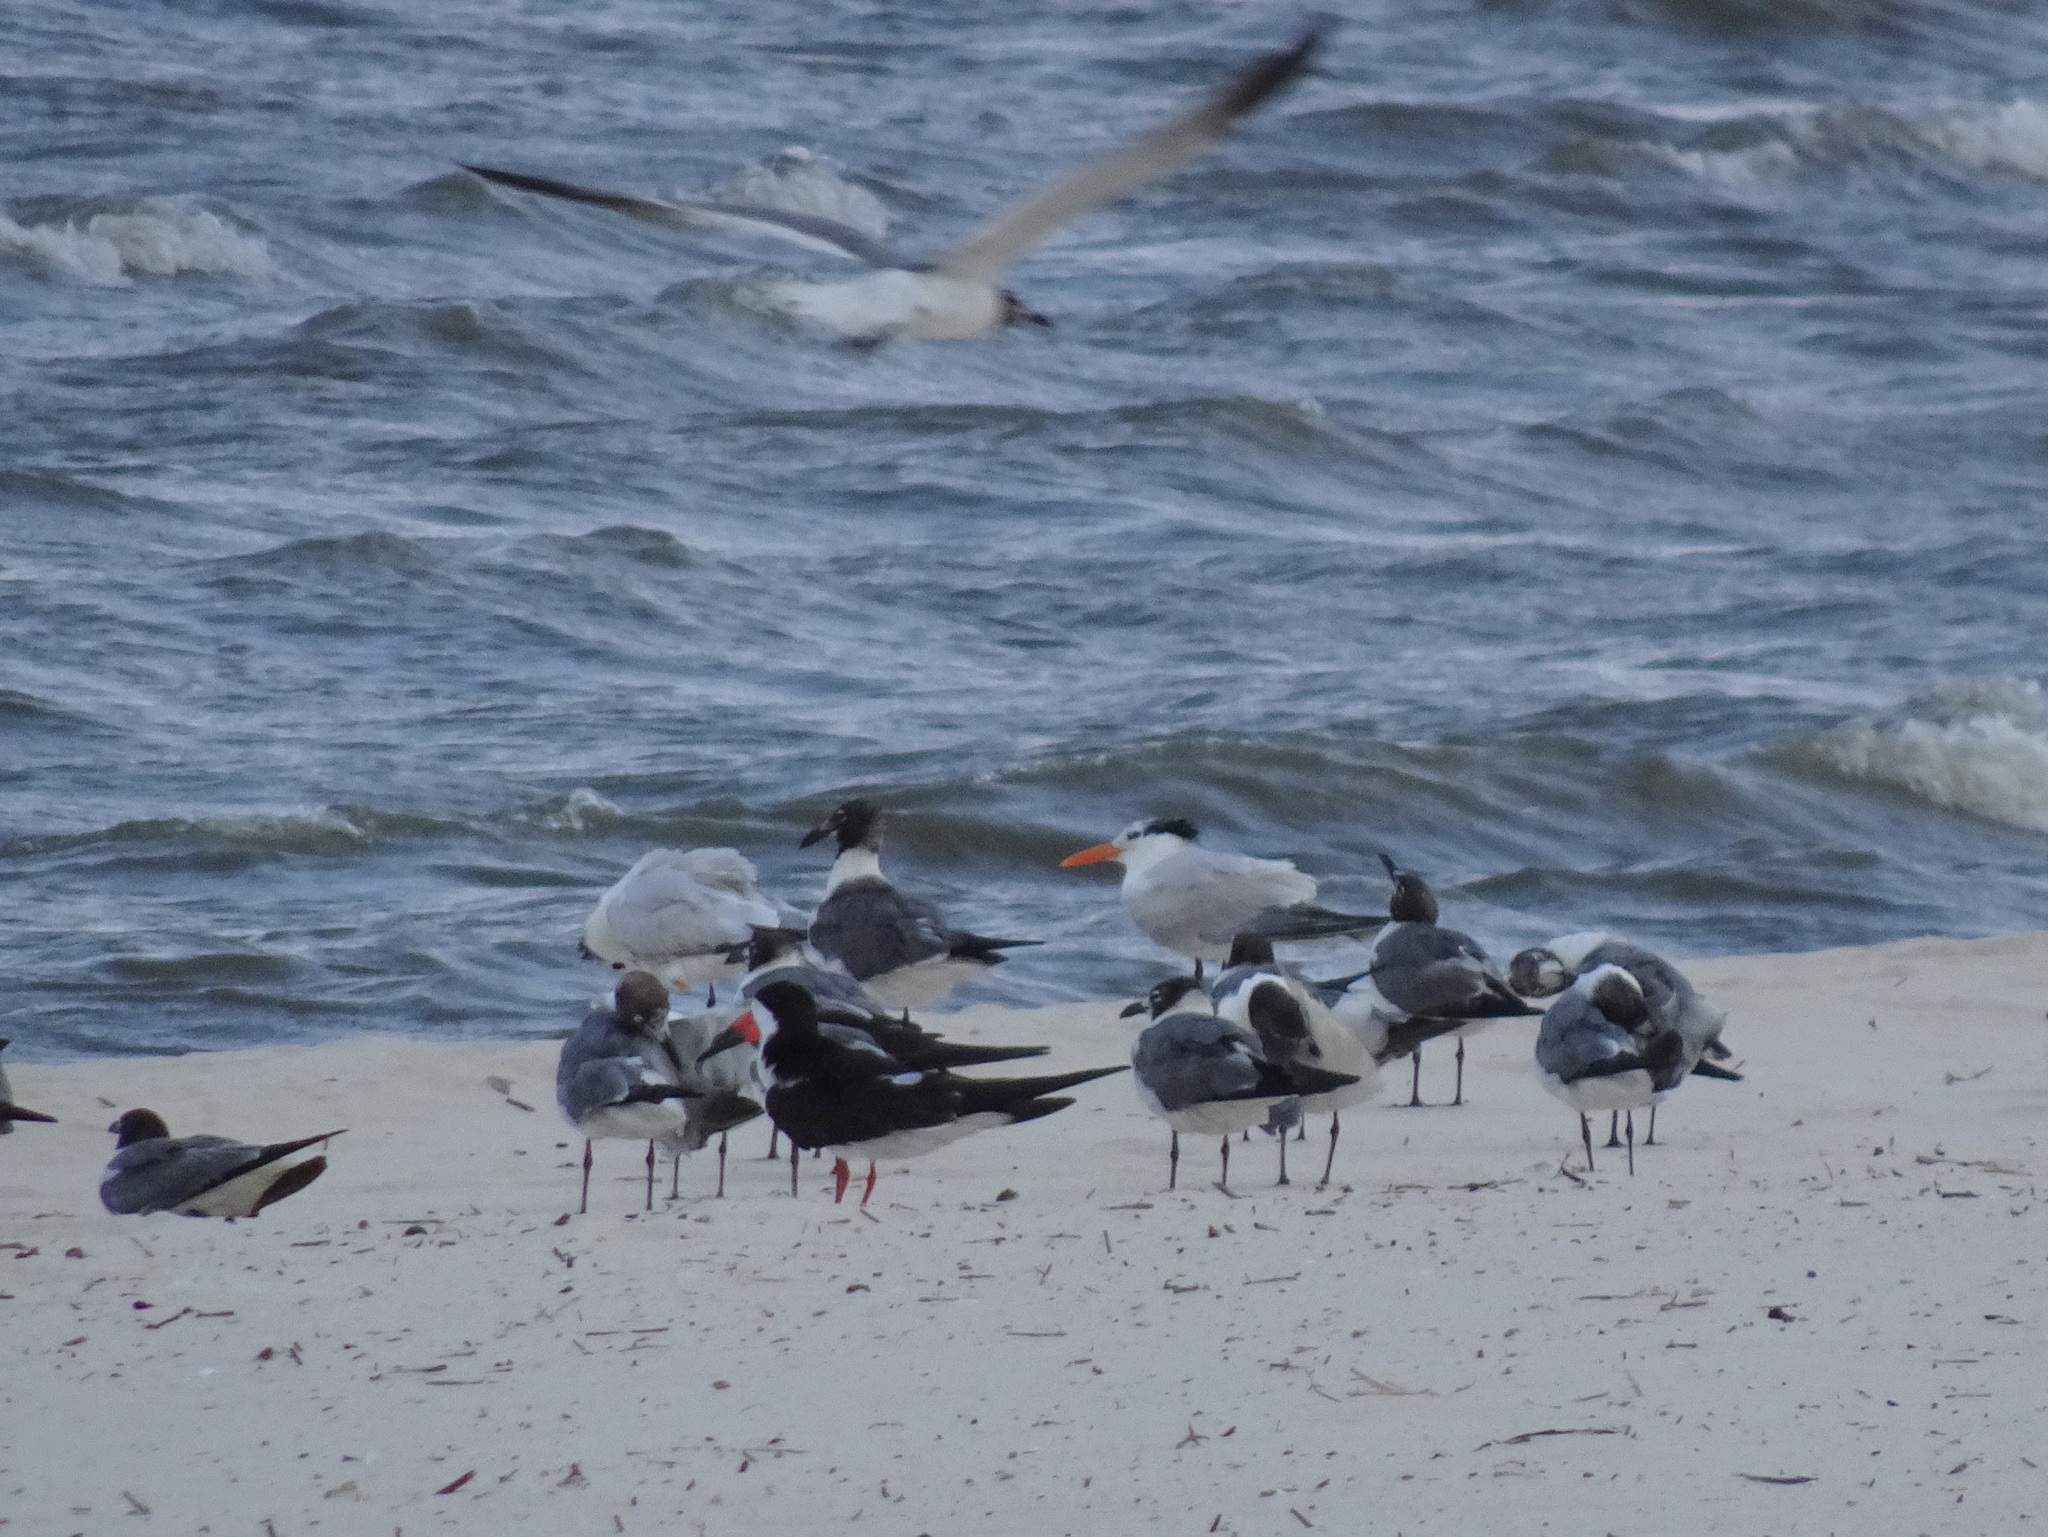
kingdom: Animalia
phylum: Chordata
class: Aves
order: Charadriiformes
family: Laridae
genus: Thalasseus
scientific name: Thalasseus maximus
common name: Royal tern
